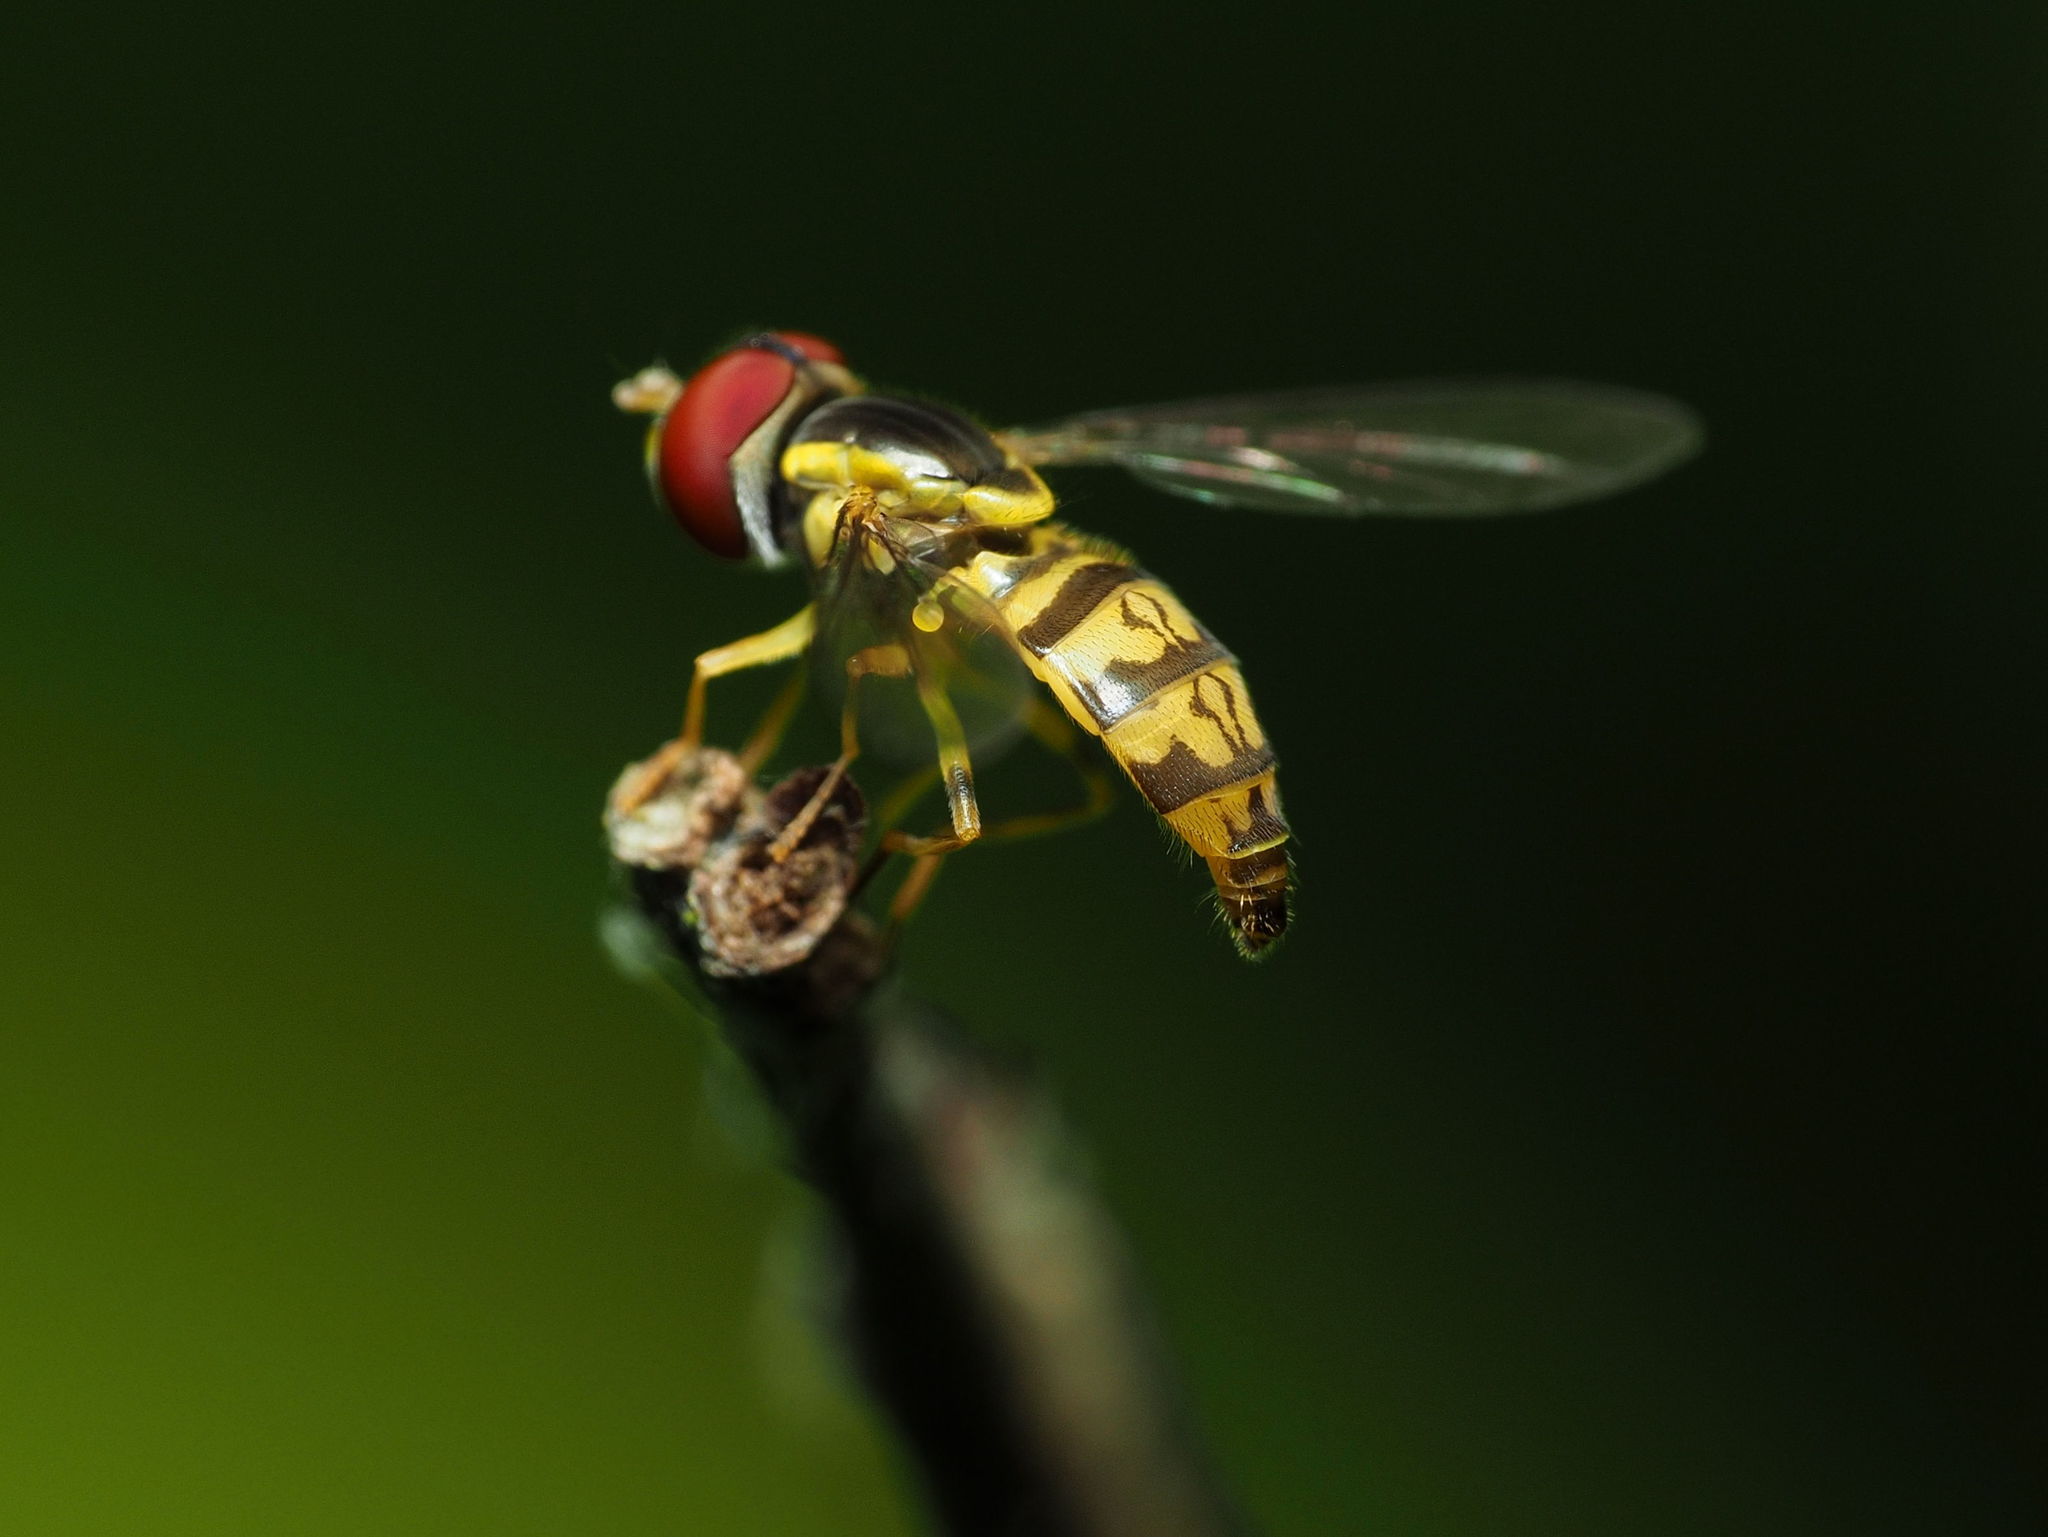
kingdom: Animalia
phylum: Arthropoda
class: Insecta
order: Diptera
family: Syrphidae
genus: Toxomerus
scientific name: Toxomerus geminatus
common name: Eastern calligrapher
